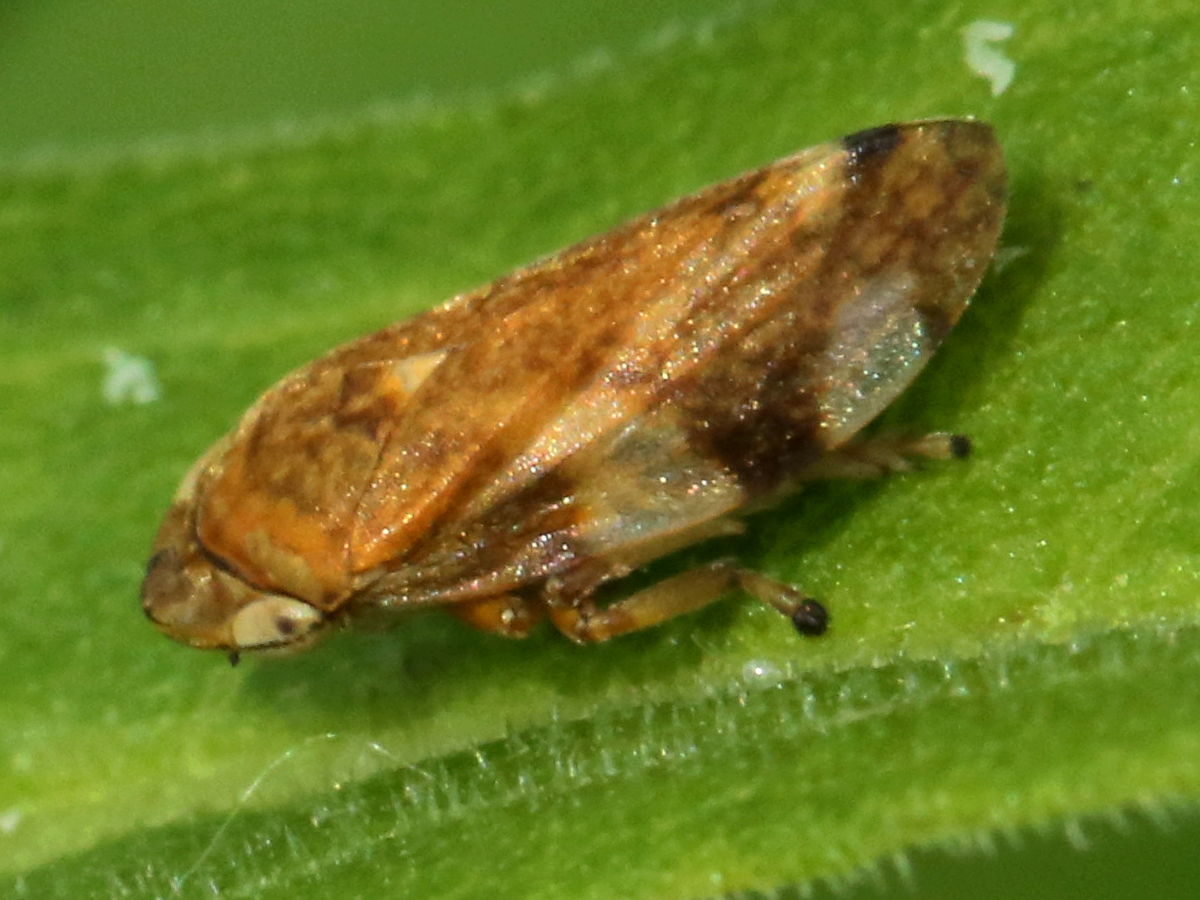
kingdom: Animalia
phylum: Arthropoda
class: Insecta
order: Hemiptera
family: Aphrophoridae
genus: Philaenus
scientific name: Philaenus spumarius
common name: Meadow spittlebug
